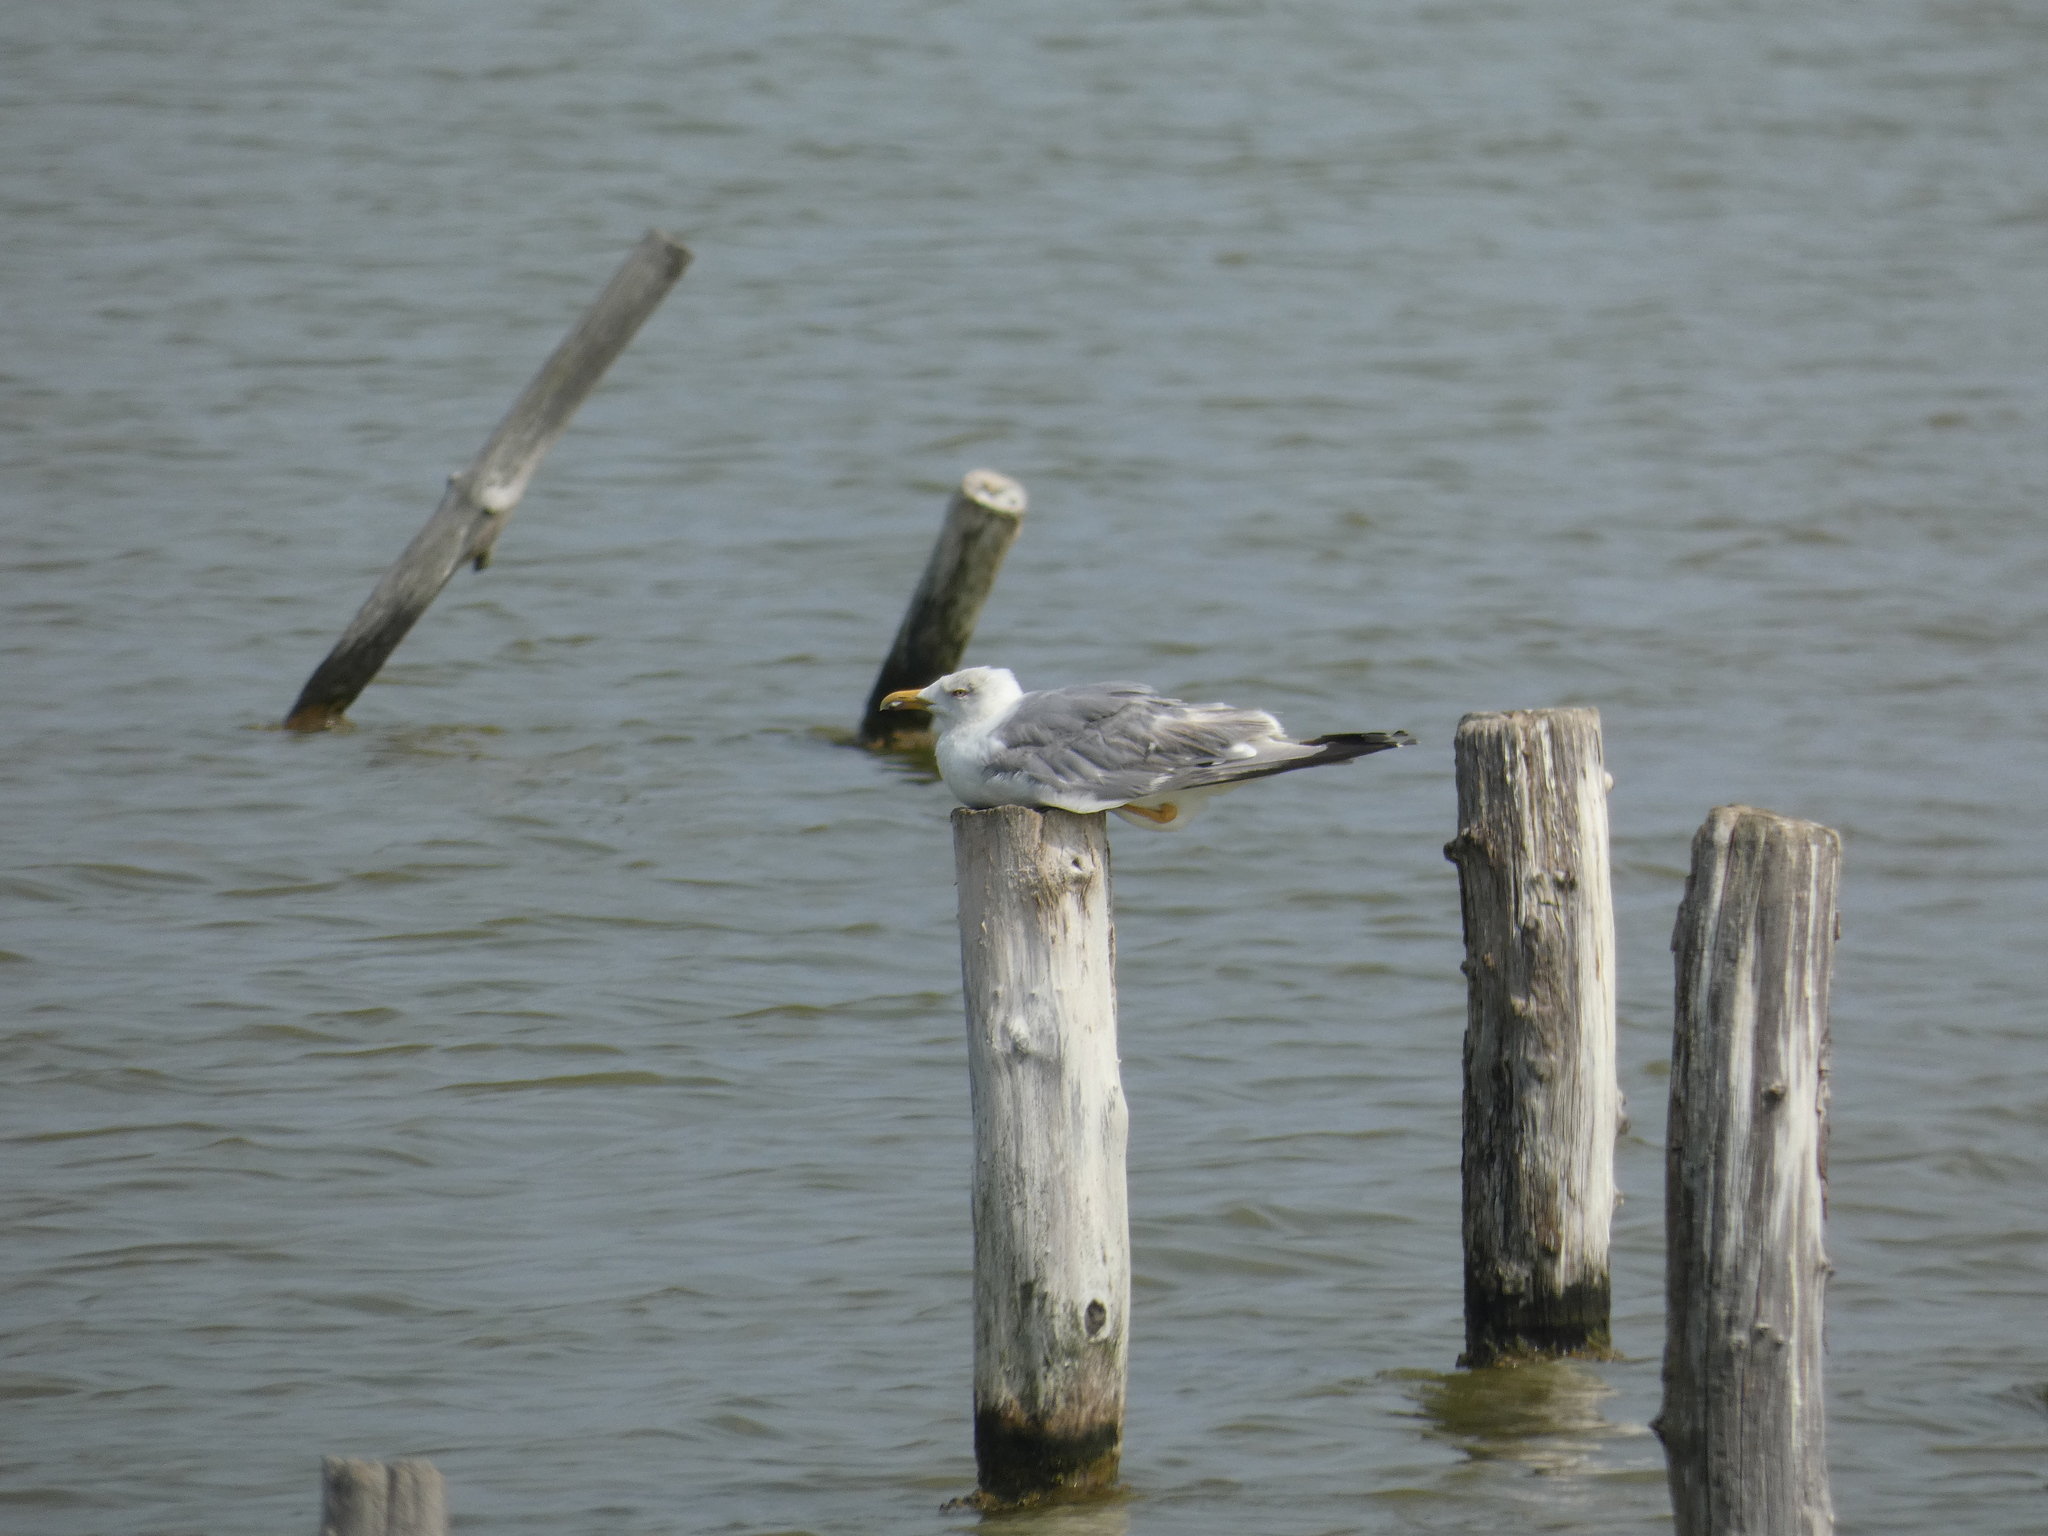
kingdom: Animalia
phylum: Chordata
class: Aves
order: Charadriiformes
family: Laridae
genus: Larus
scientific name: Larus michahellis
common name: Yellow-legged gull
